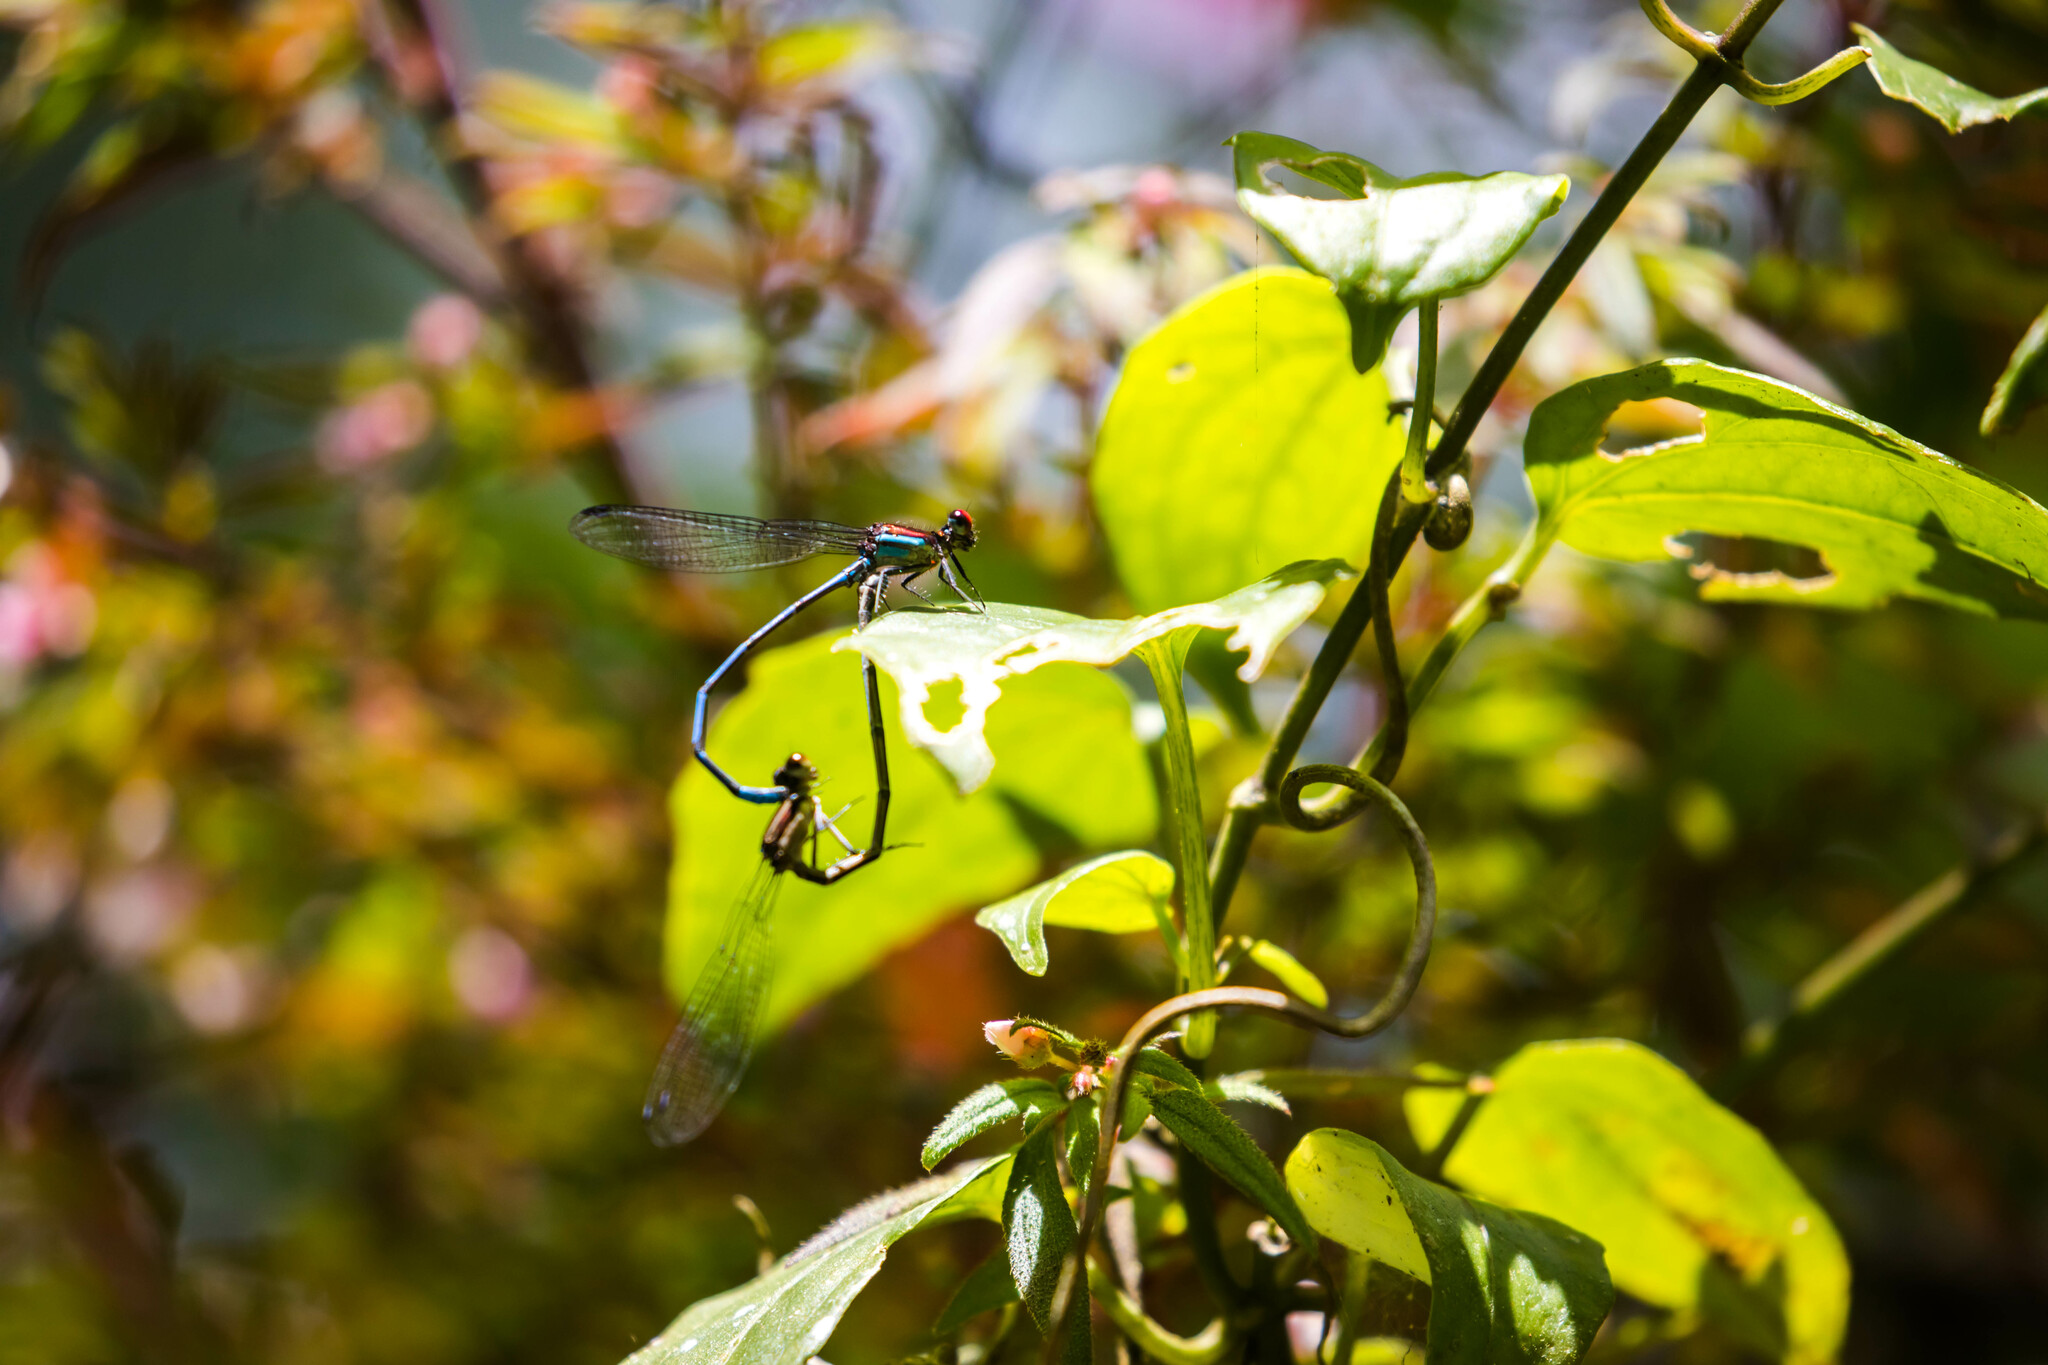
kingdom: Animalia
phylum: Arthropoda
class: Insecta
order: Odonata
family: Coenagrionidae
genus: Argia
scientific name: Argia cupraurea
